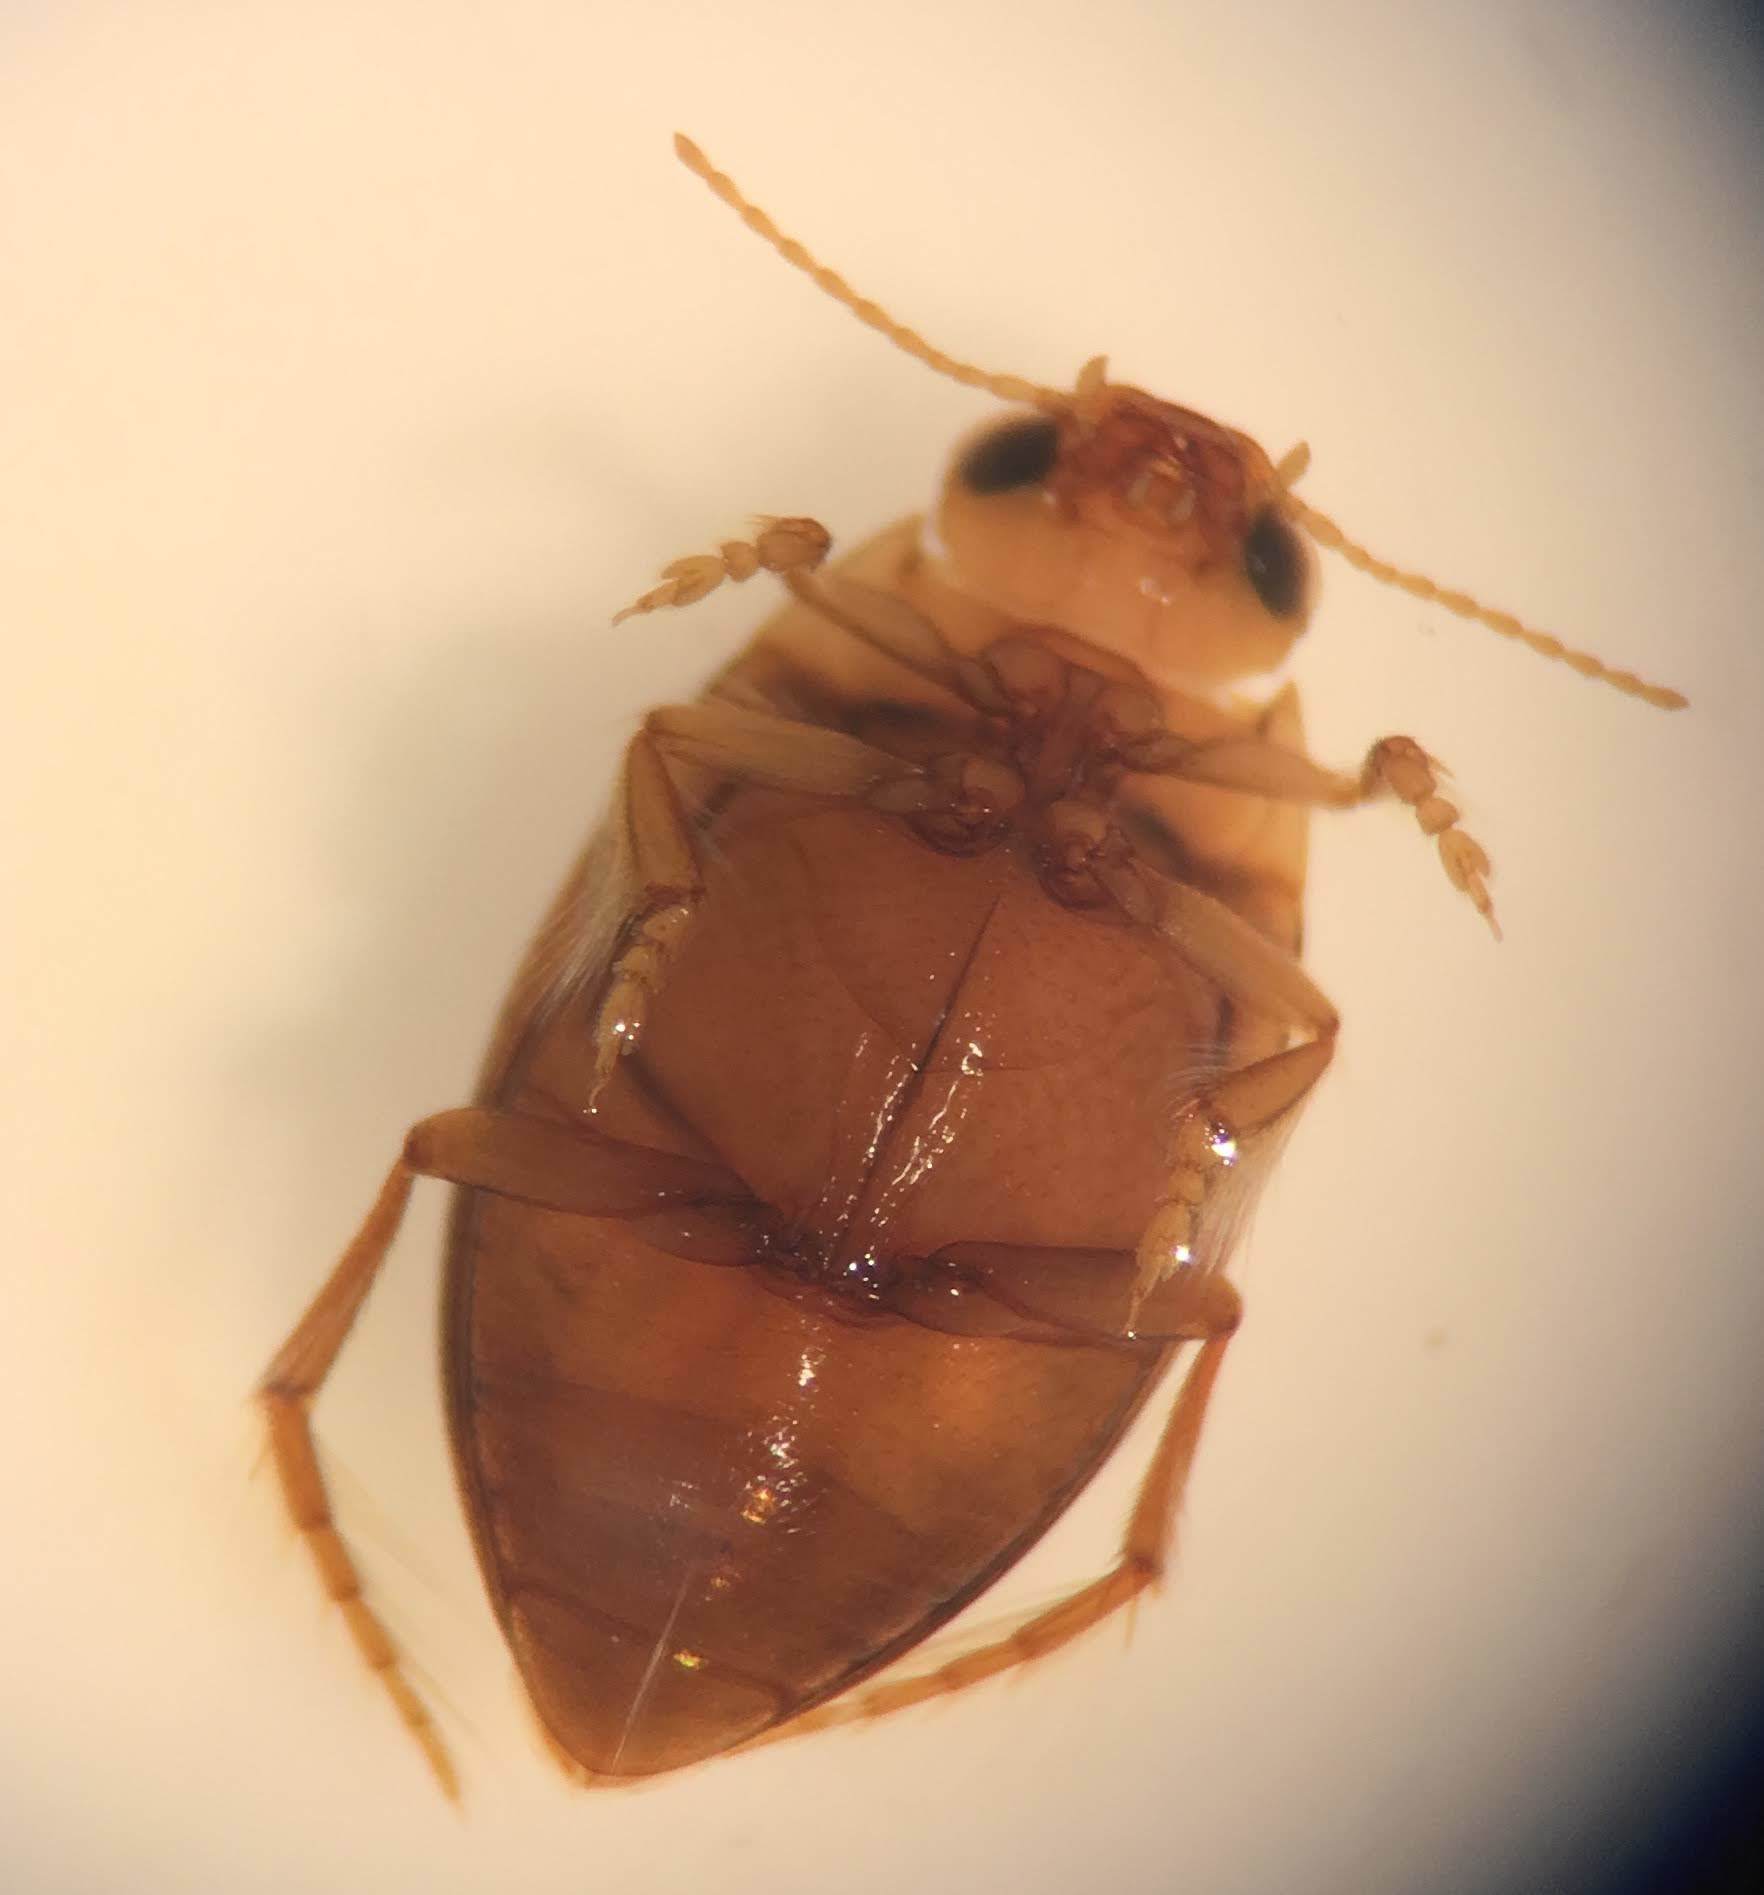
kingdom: Animalia
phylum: Arthropoda
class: Insecta
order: Coleoptera
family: Dytiscidae
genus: Neoporus
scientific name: Neoporus hybridus
